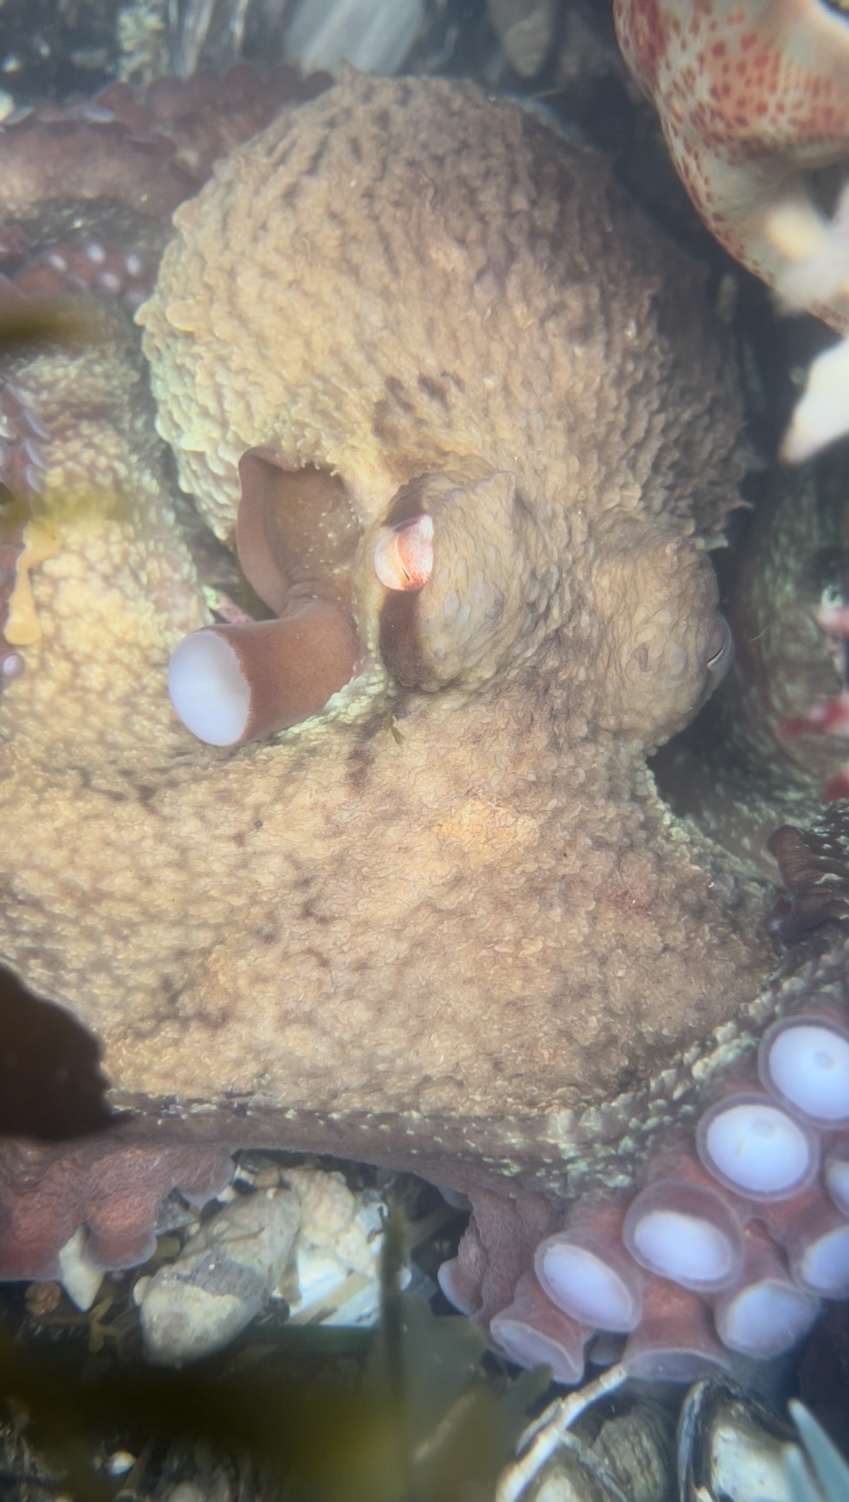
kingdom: Animalia
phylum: Mollusca
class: Cephalopoda
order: Octopoda
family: Enteroctopodidae
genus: Enteroctopus
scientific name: Enteroctopus dofleini
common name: Giant north pacific octopus
